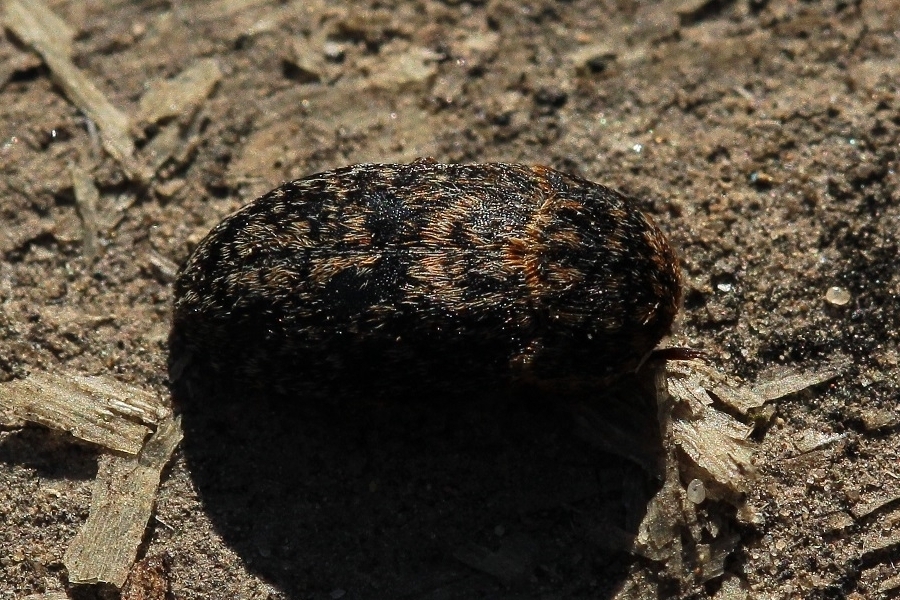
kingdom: Animalia
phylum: Arthropoda
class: Insecta
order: Coleoptera
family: Dermestidae
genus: Dermestes
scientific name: Dermestes gyllenhalii
